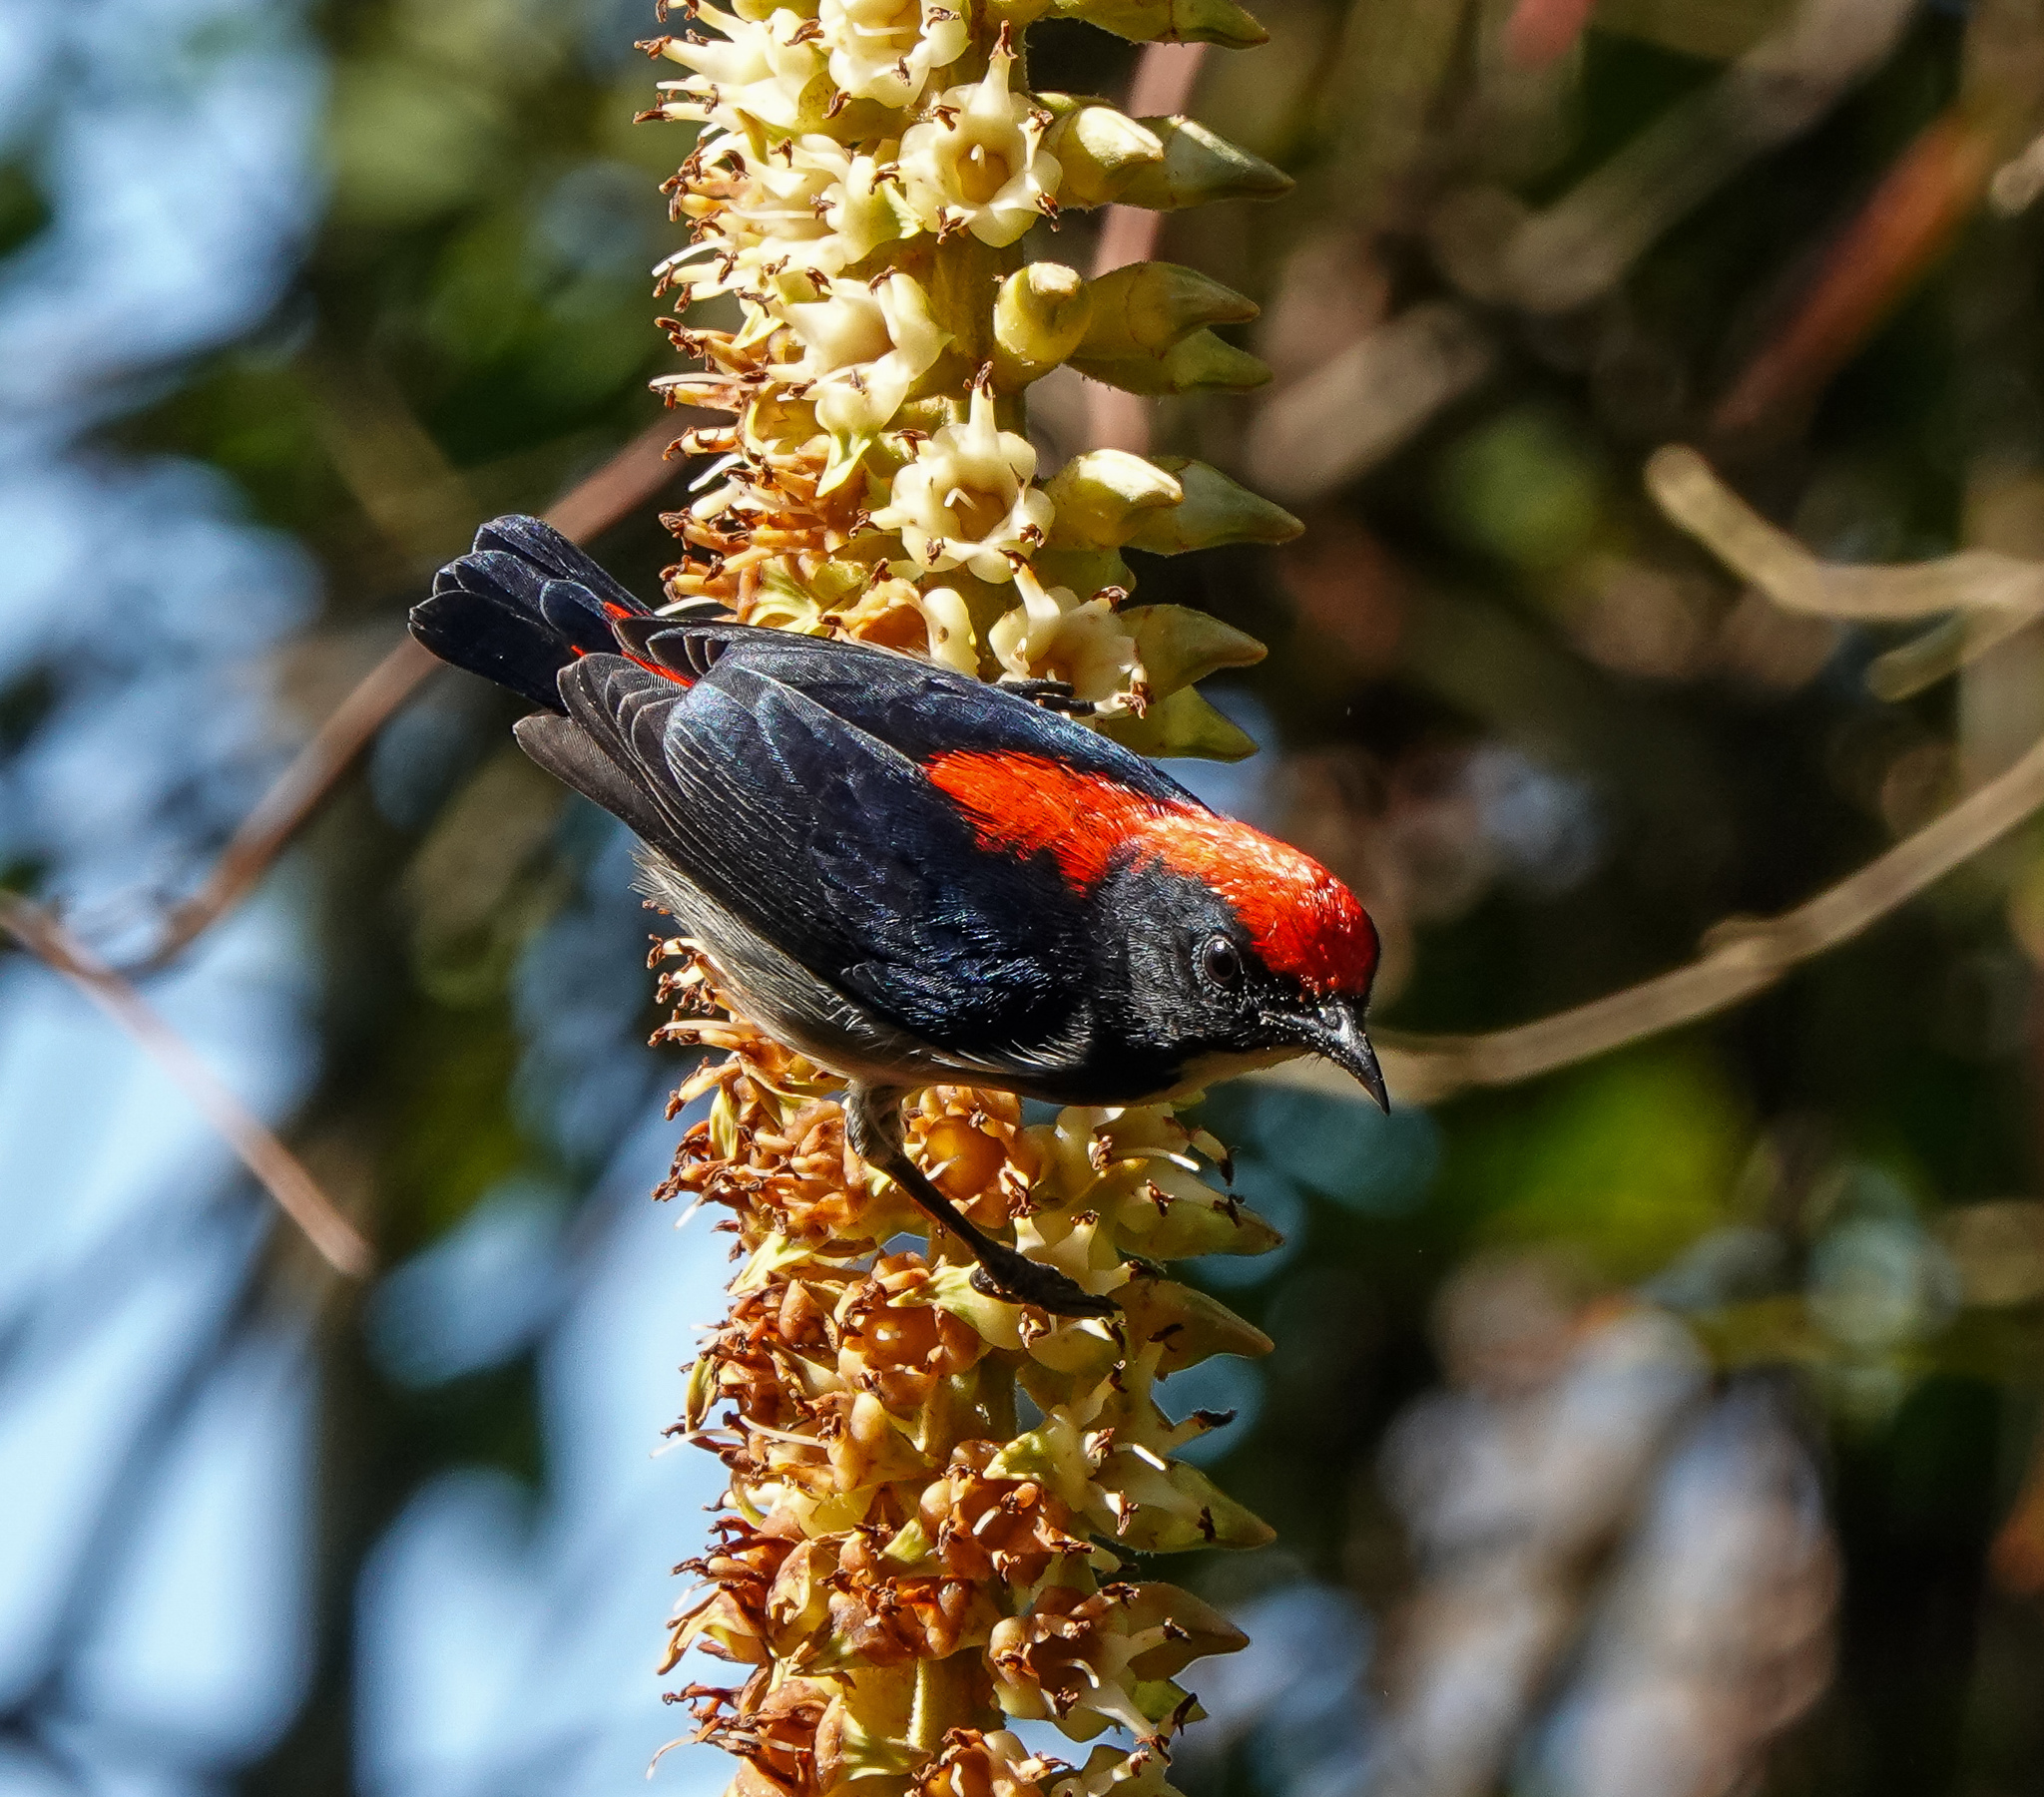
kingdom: Animalia
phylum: Chordata
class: Aves
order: Passeriformes
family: Dicaeidae
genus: Dicaeum
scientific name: Dicaeum cruentatum
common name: Scarlet-backed flowerpecker
